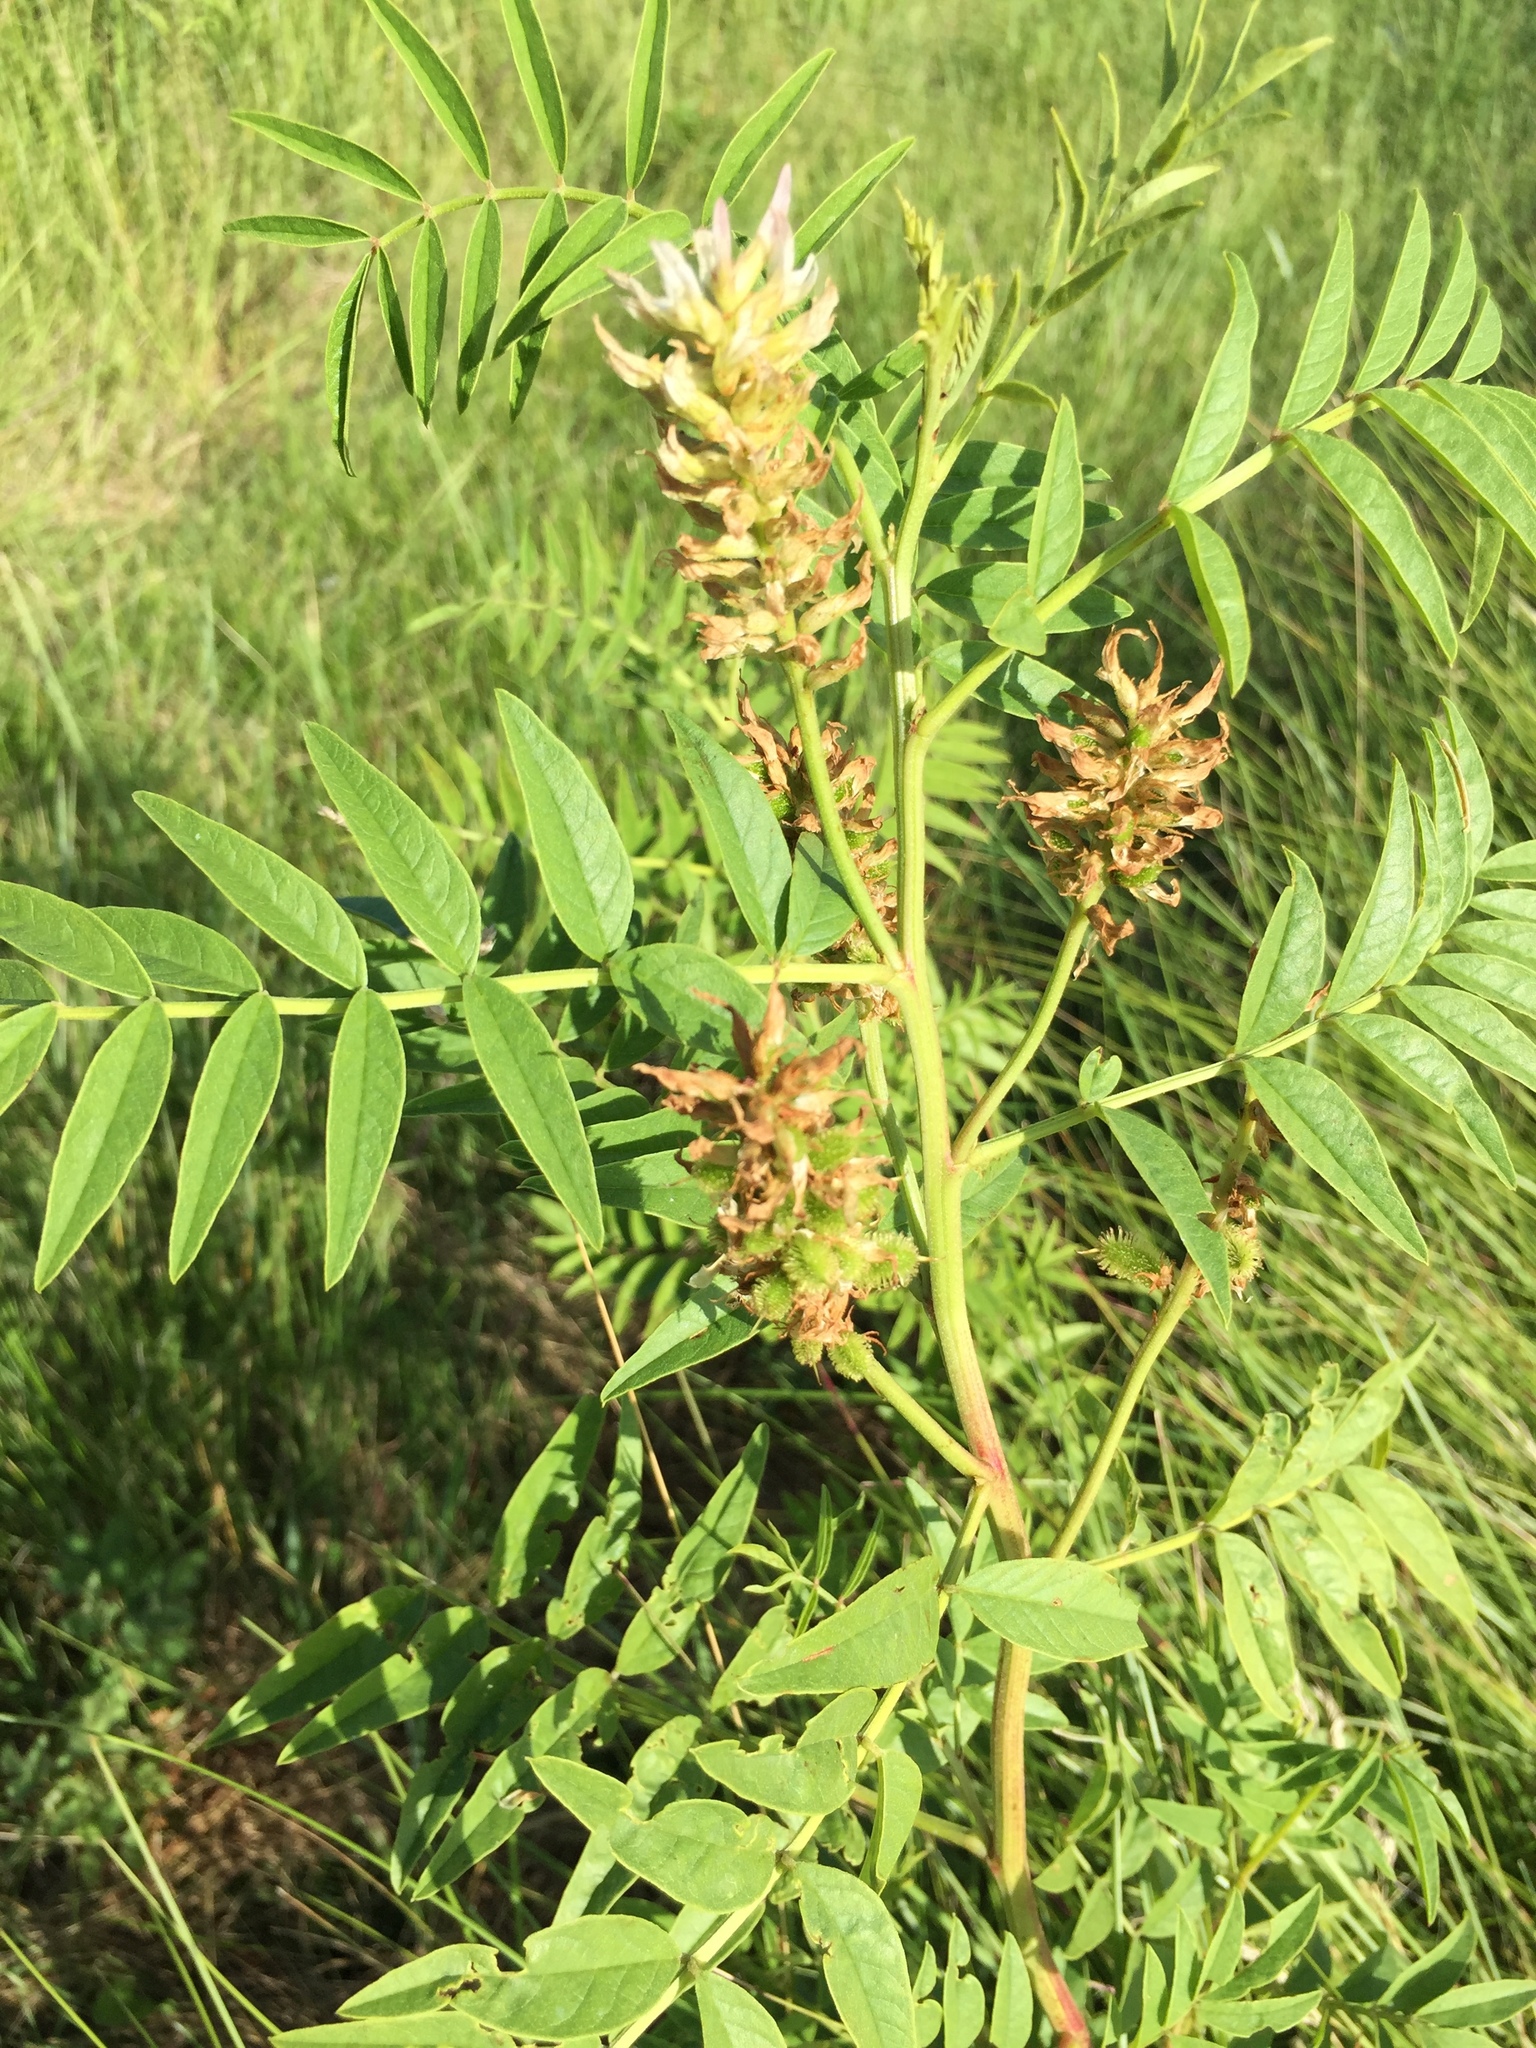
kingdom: Plantae
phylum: Tracheophyta
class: Magnoliopsida
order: Fabales
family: Fabaceae
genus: Glycyrrhiza
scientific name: Glycyrrhiza lepidota
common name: American liquorice
